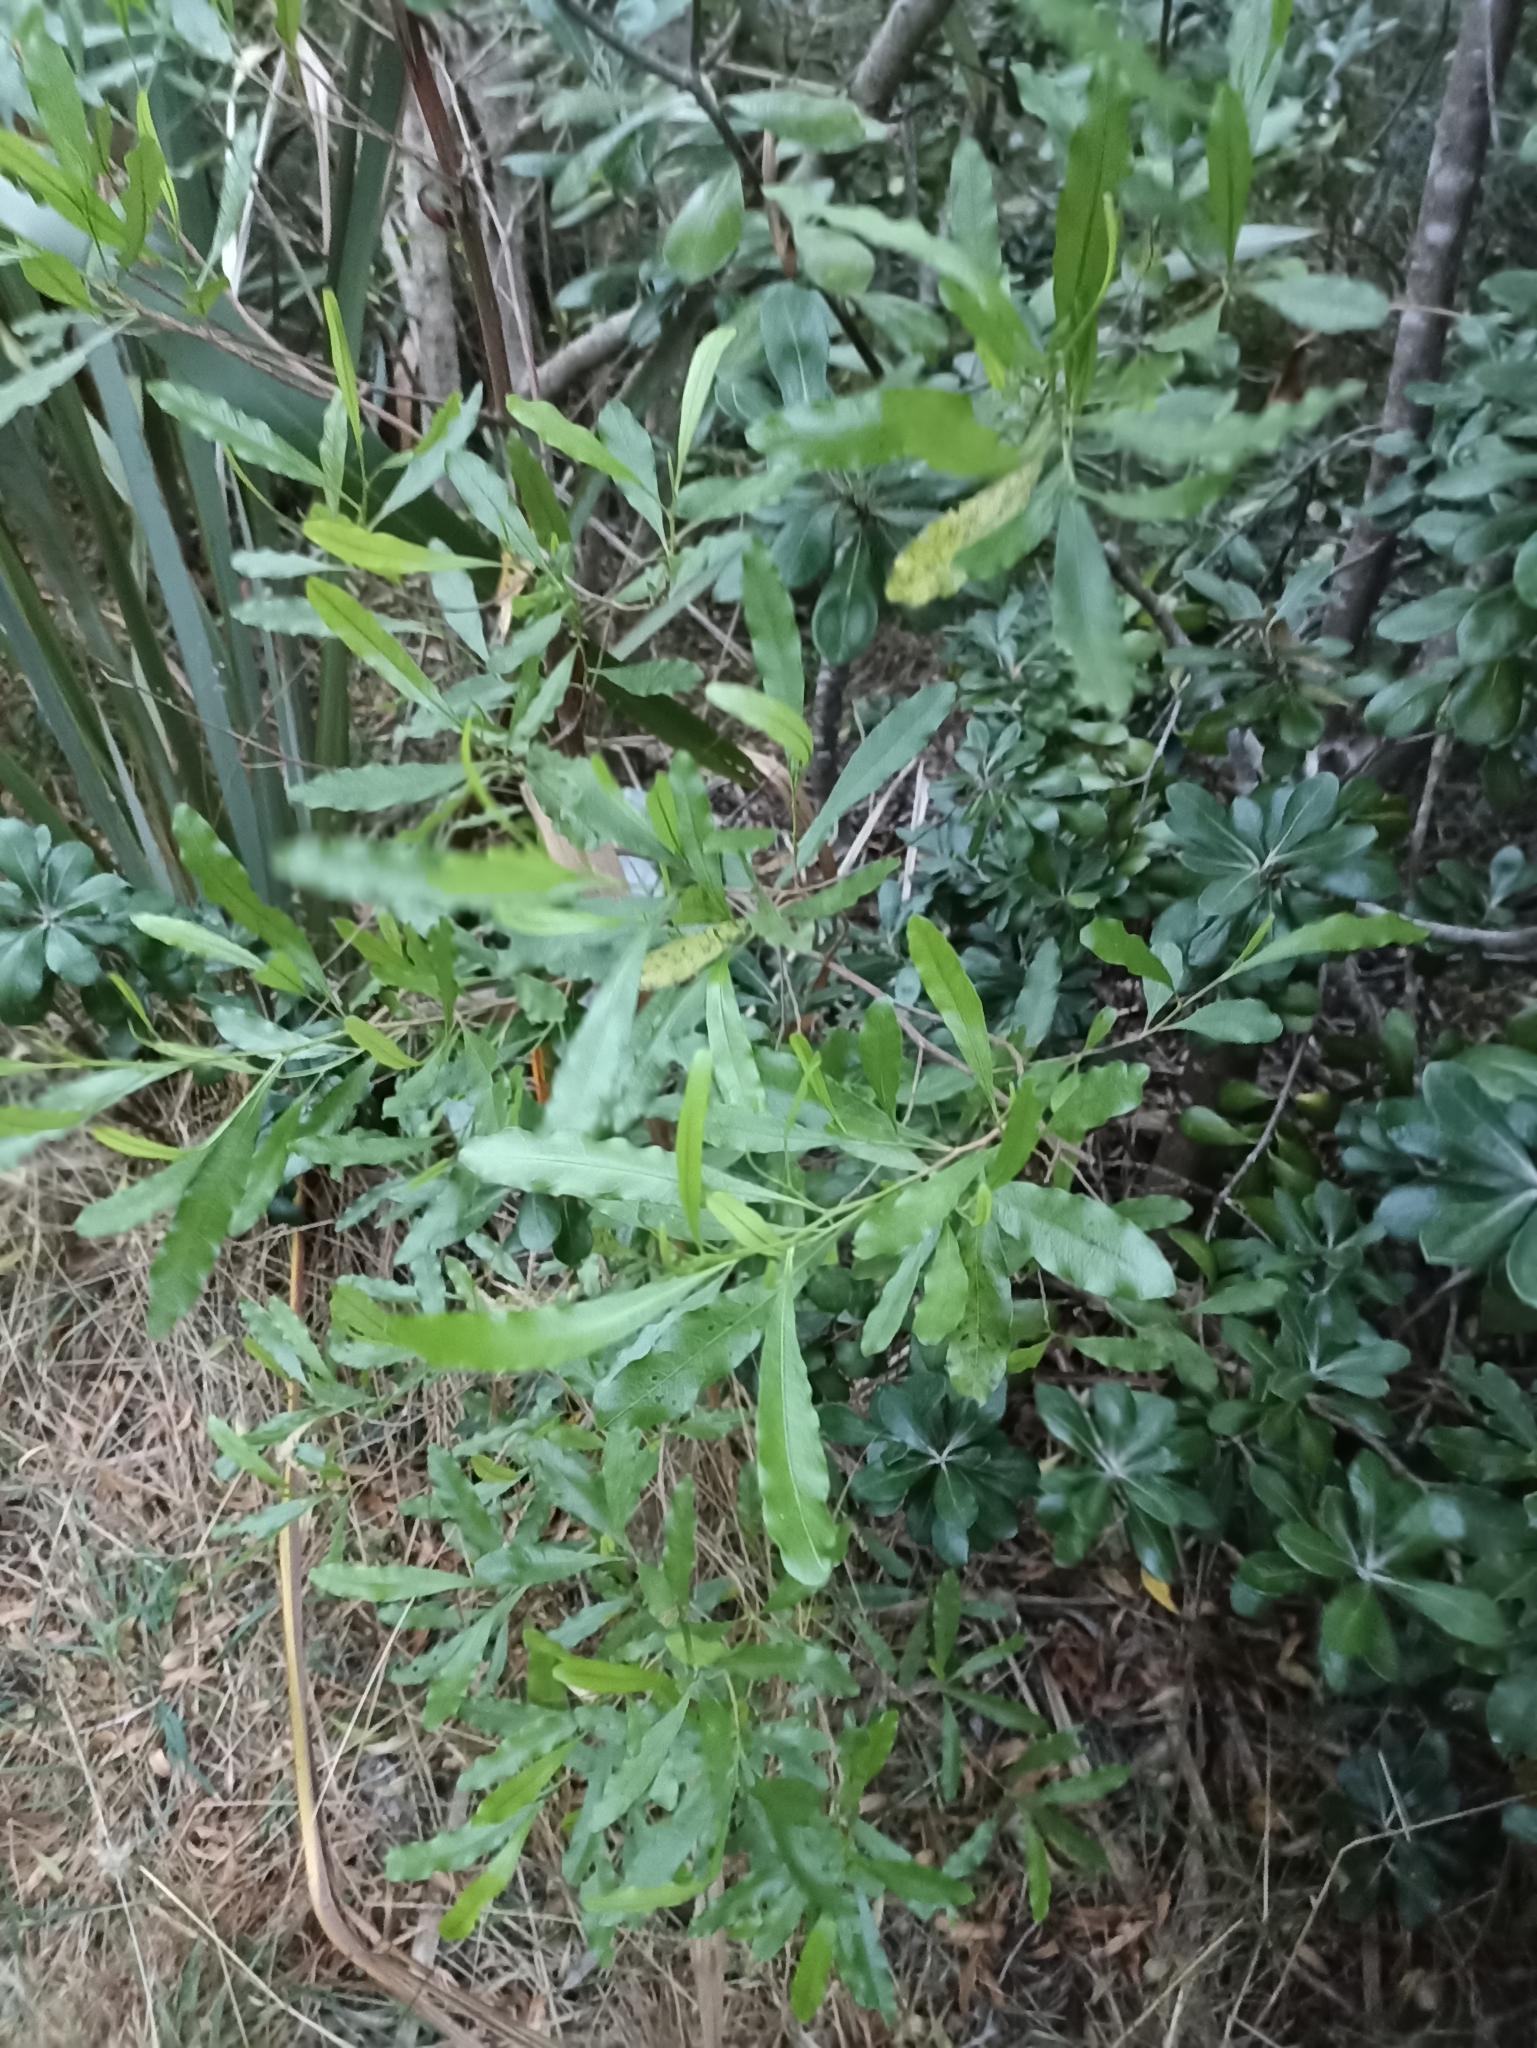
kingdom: Plantae
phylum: Tracheophyta
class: Magnoliopsida
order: Sapindales
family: Sapindaceae
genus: Dodonaea
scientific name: Dodonaea viscosa
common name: Hopbush
